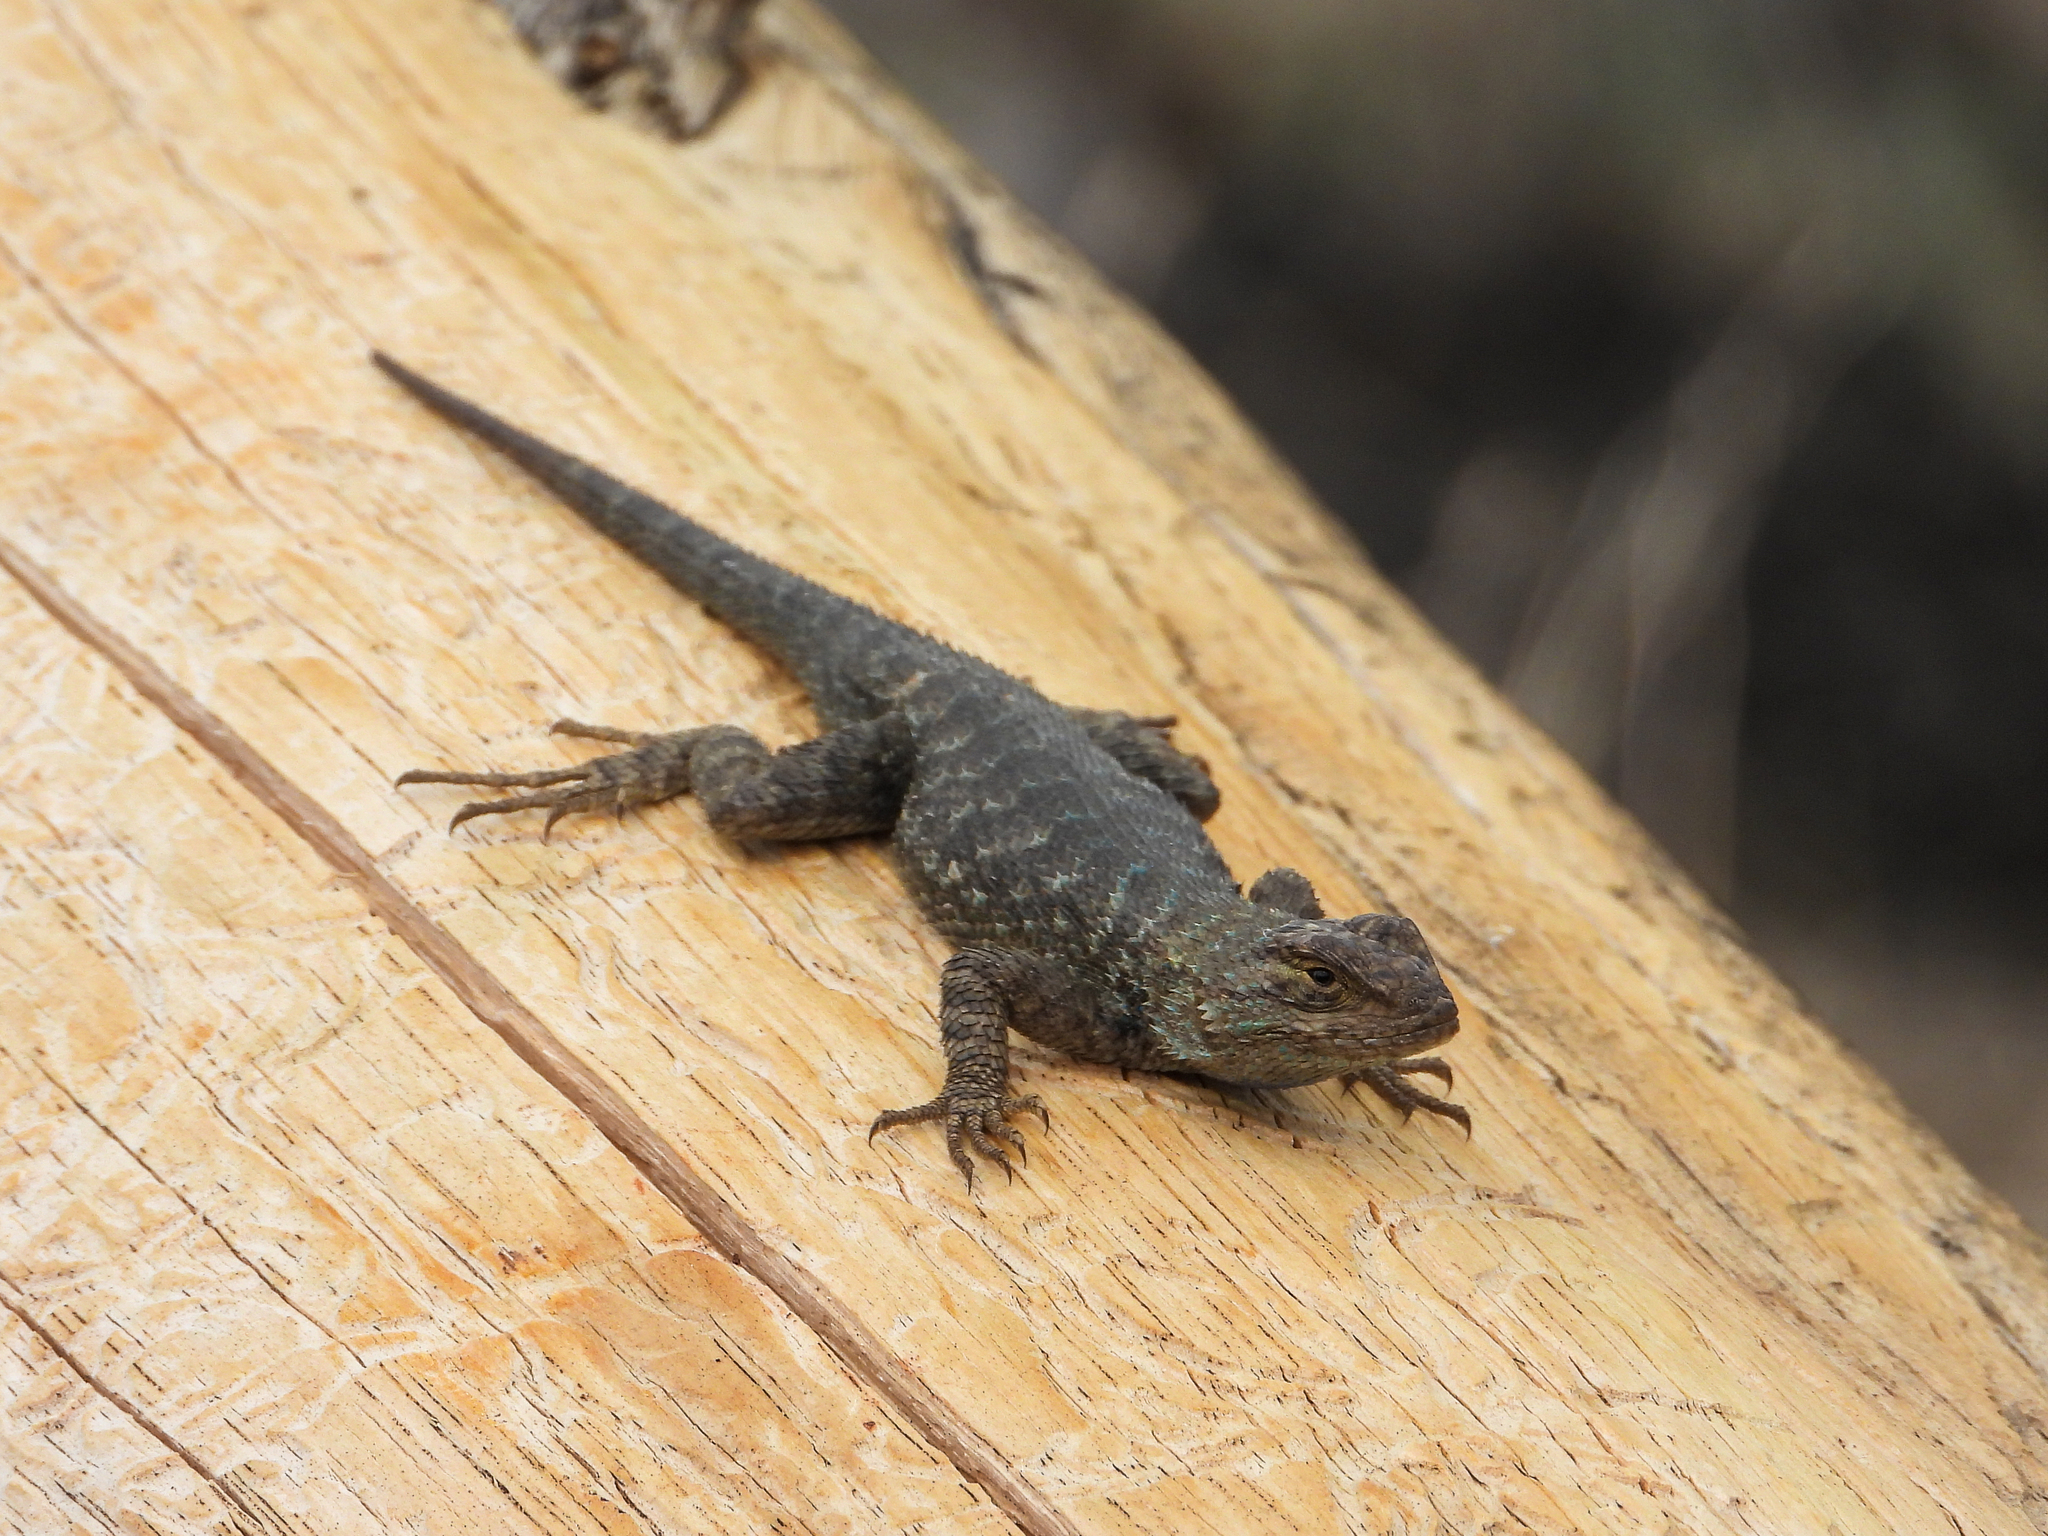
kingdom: Animalia
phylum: Chordata
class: Squamata
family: Phrynosomatidae
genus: Sceloporus
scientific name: Sceloporus occidentalis
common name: Western fence lizard
